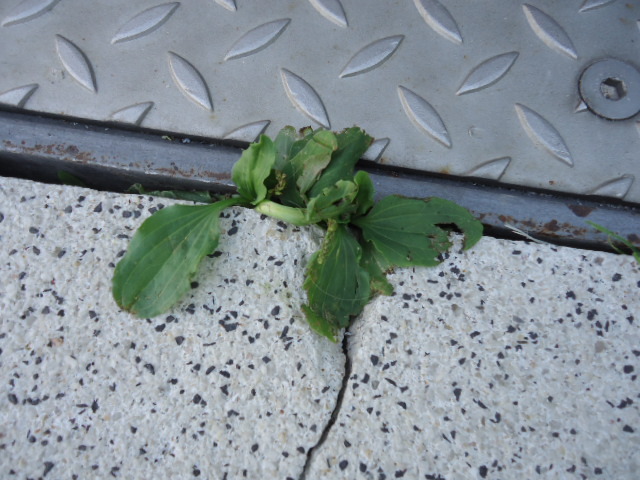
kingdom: Plantae
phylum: Tracheophyta
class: Magnoliopsida
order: Lamiales
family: Plantaginaceae
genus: Plantago
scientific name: Plantago major
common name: Common plantain
